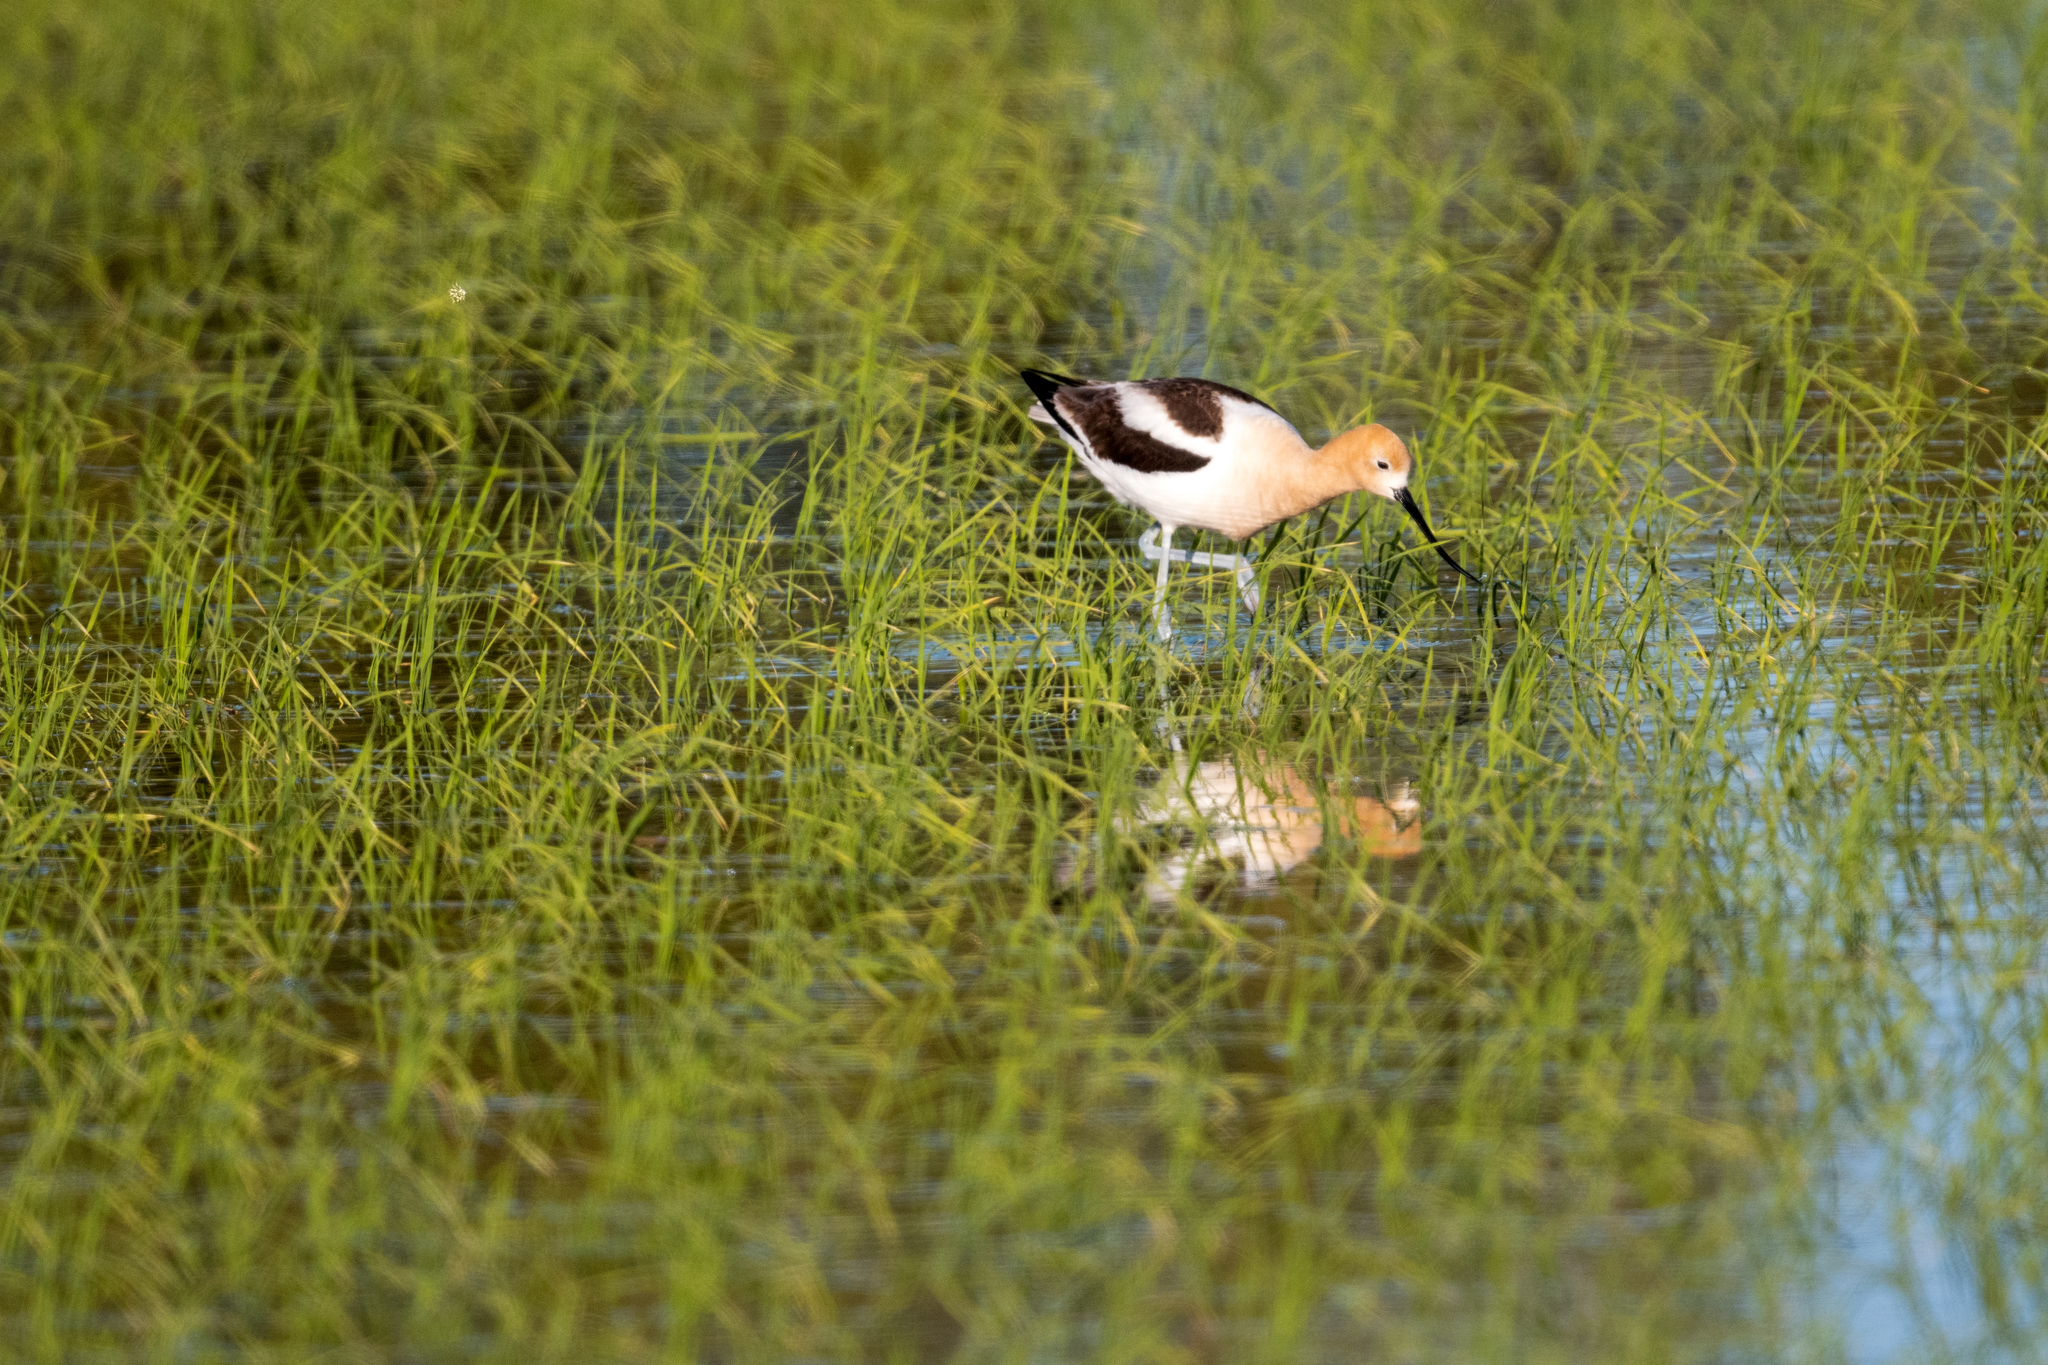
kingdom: Animalia
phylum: Chordata
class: Aves
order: Charadriiformes
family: Recurvirostridae
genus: Recurvirostra
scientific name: Recurvirostra americana
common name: American avocet
